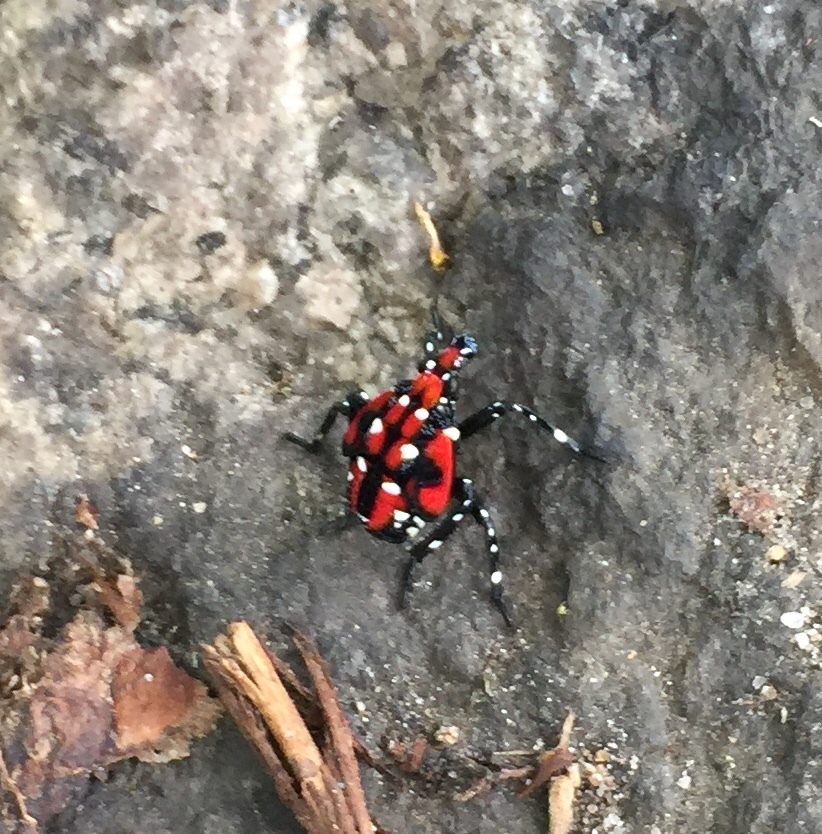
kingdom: Animalia
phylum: Arthropoda
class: Insecta
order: Hemiptera
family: Fulgoridae
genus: Lycorma
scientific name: Lycorma delicatula
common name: Spotted lanternfly
